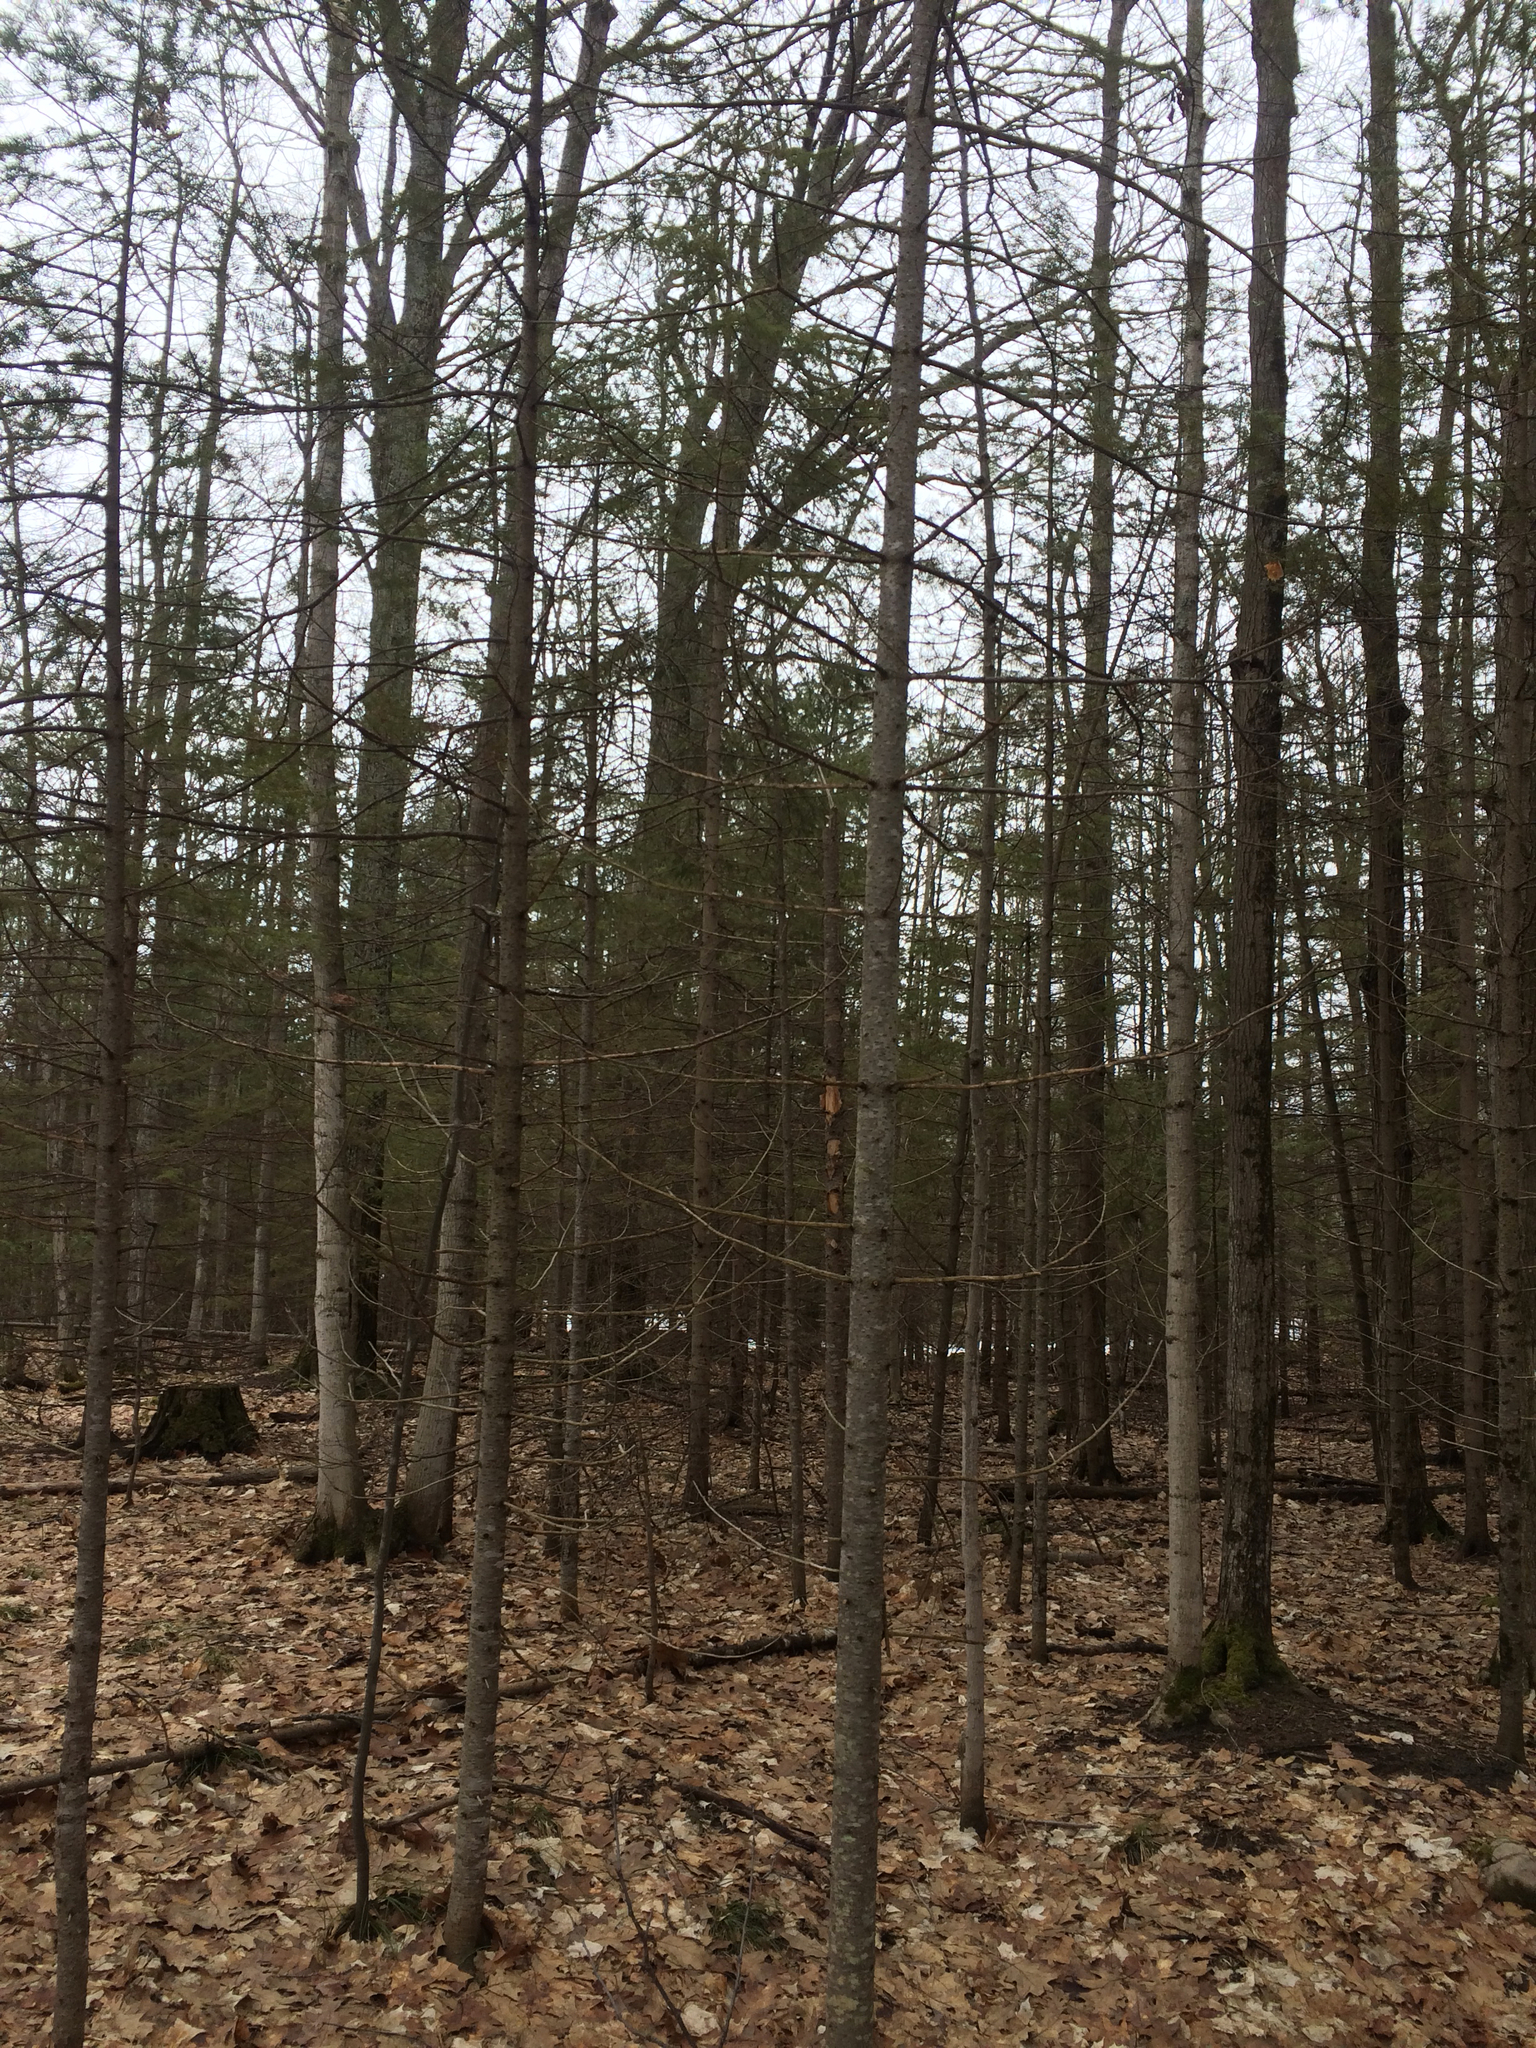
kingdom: Plantae
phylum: Tracheophyta
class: Pinopsida
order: Pinales
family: Pinaceae
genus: Abies
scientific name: Abies balsamea
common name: Balsam fir
